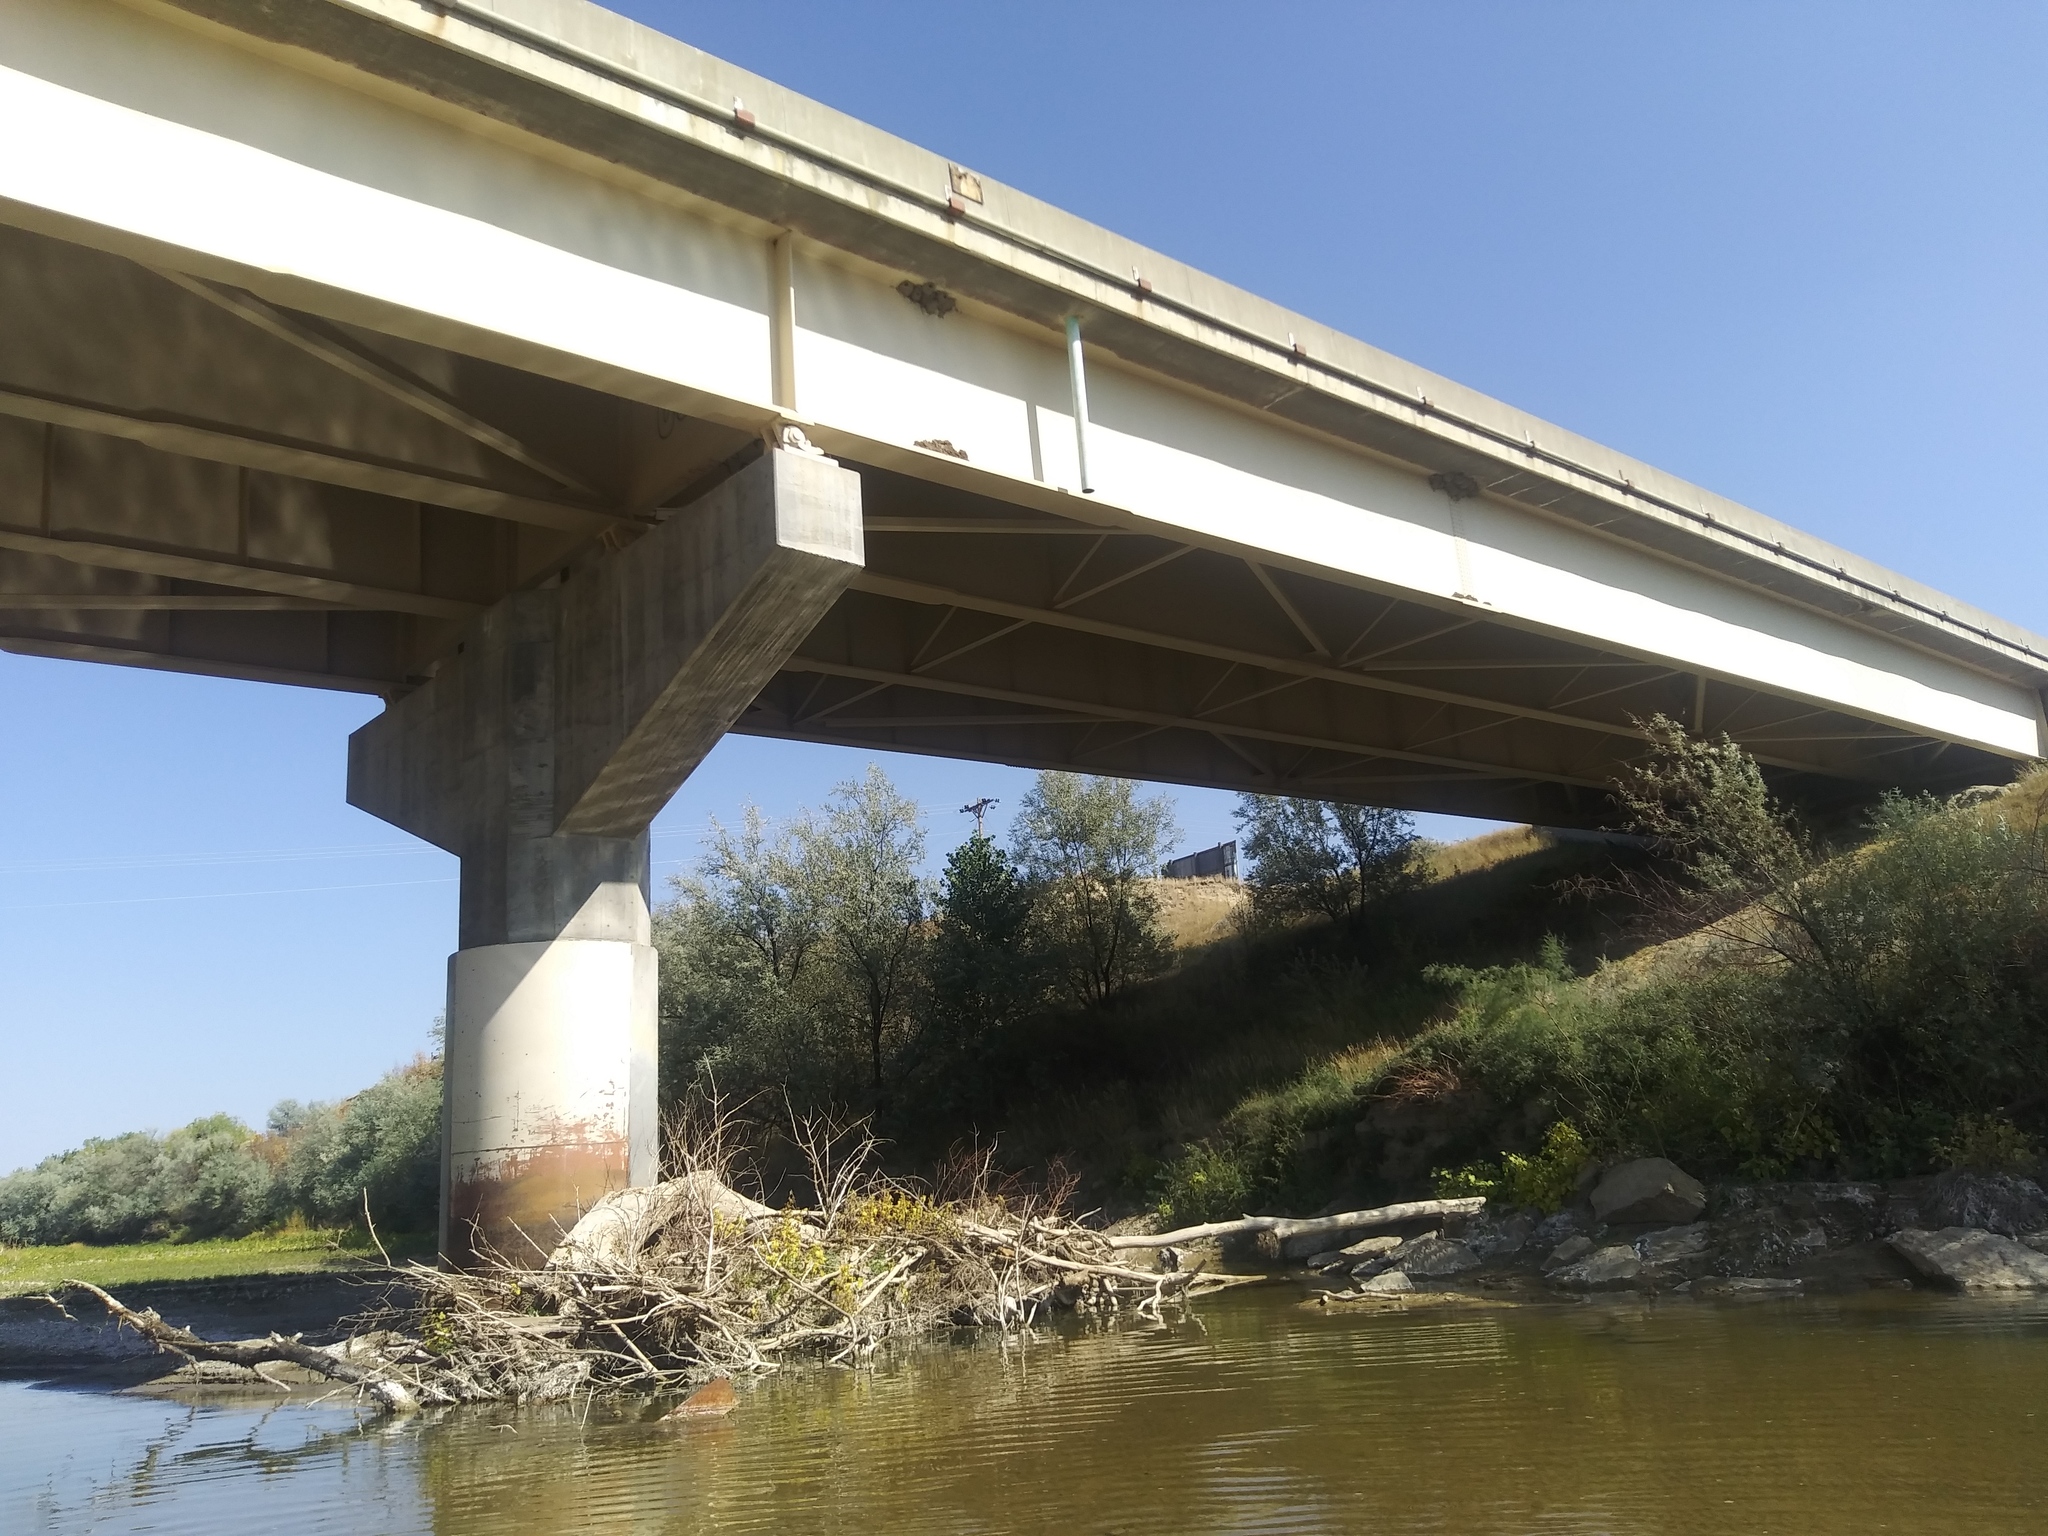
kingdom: Animalia
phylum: Chordata
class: Aves
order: Passeriformes
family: Hirundinidae
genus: Petrochelidon
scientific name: Petrochelidon pyrrhonota
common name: American cliff swallow
